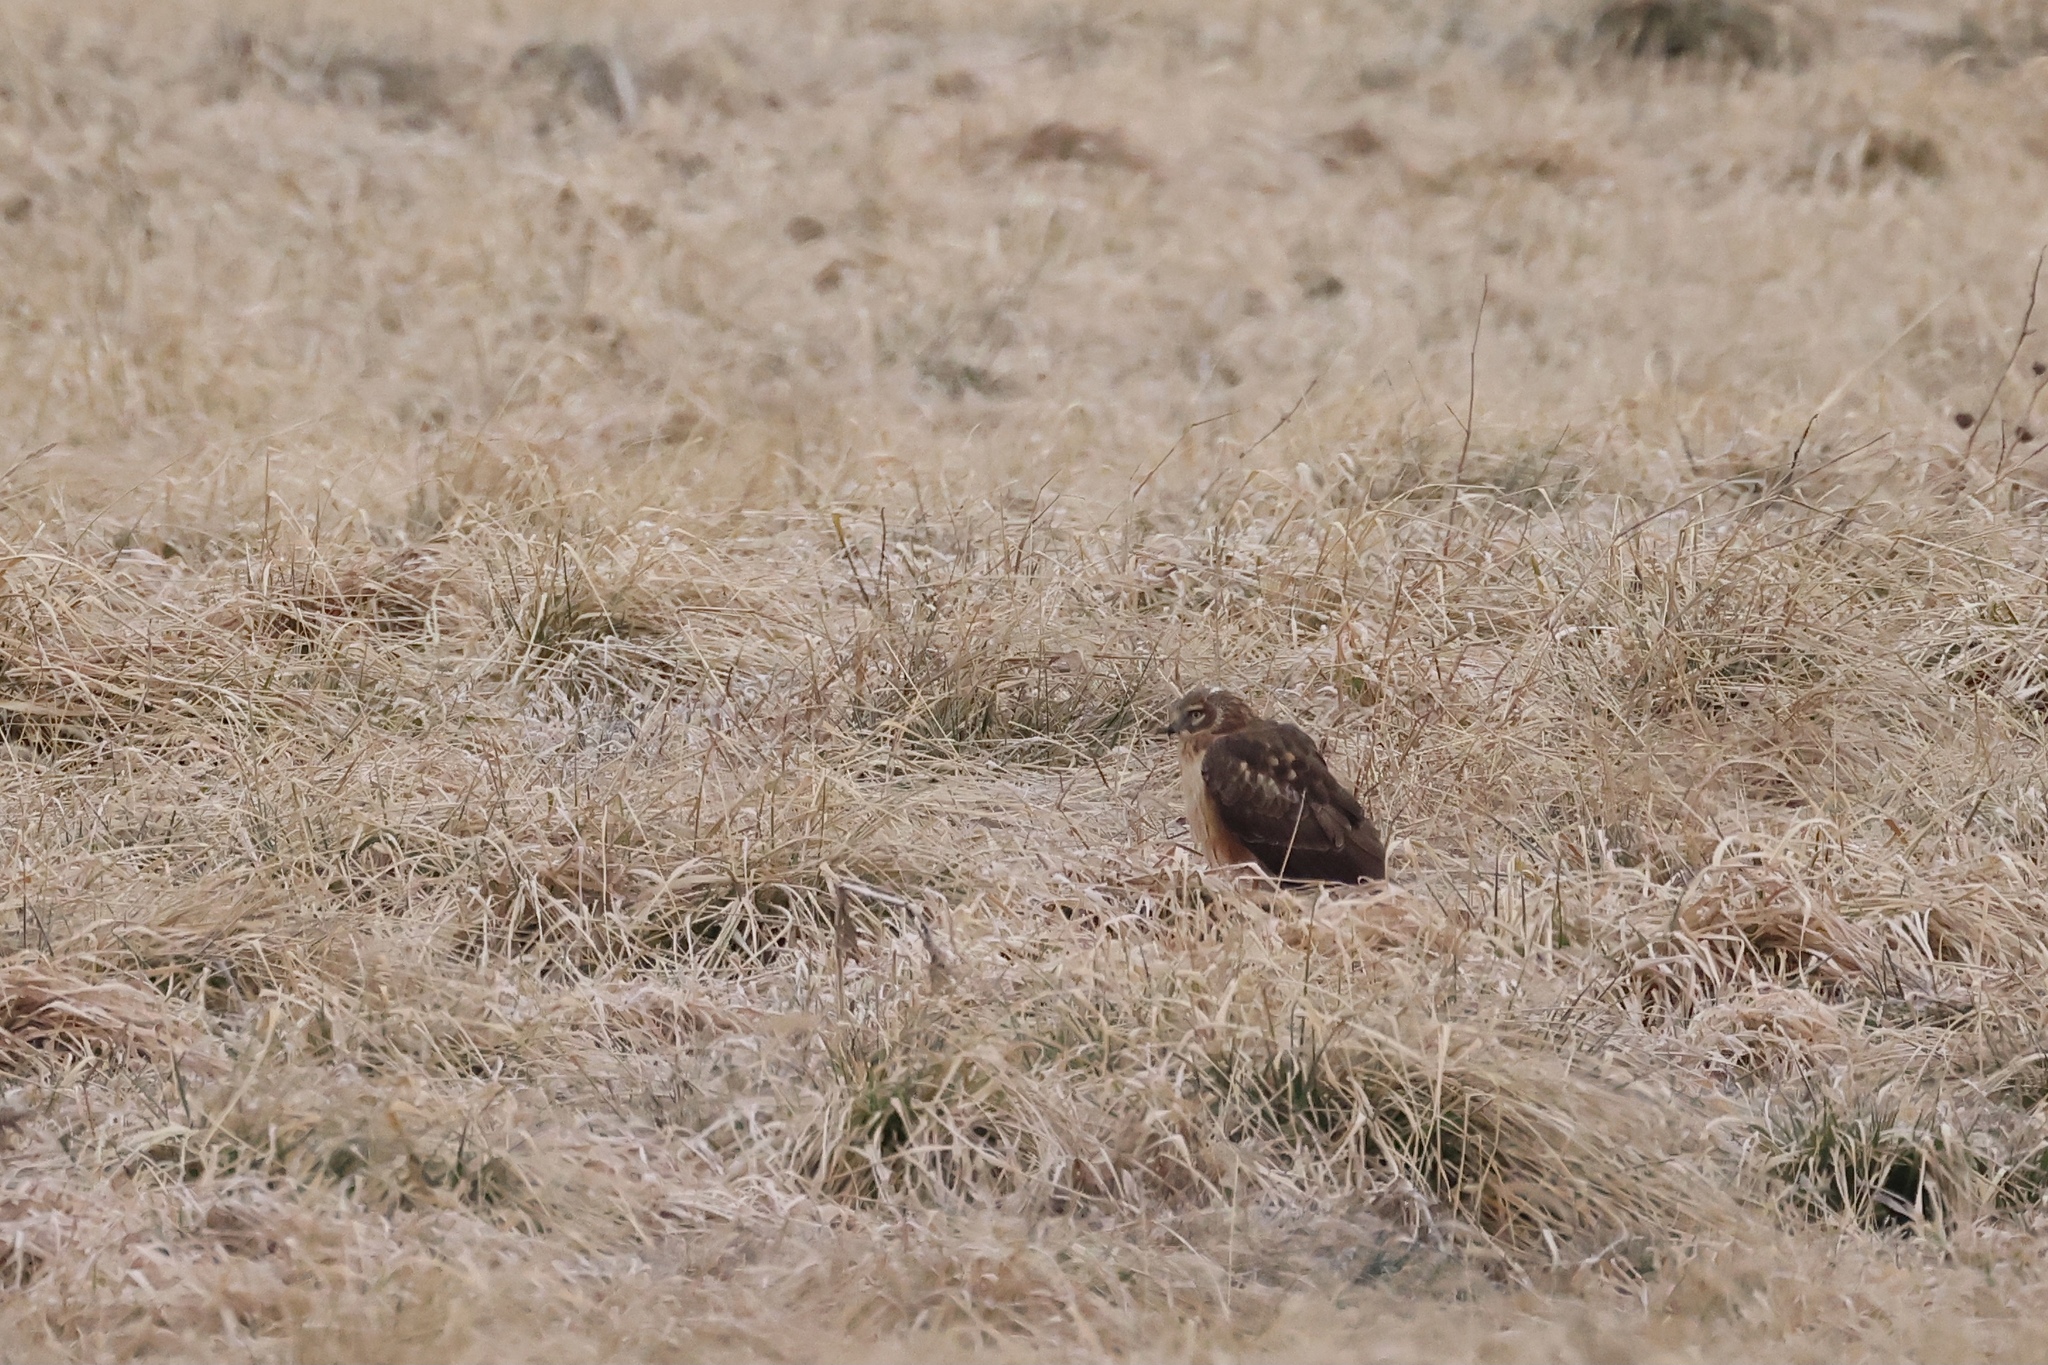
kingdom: Animalia
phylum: Chordata
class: Aves
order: Accipitriformes
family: Accipitridae
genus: Circus
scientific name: Circus cyaneus
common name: Hen harrier
